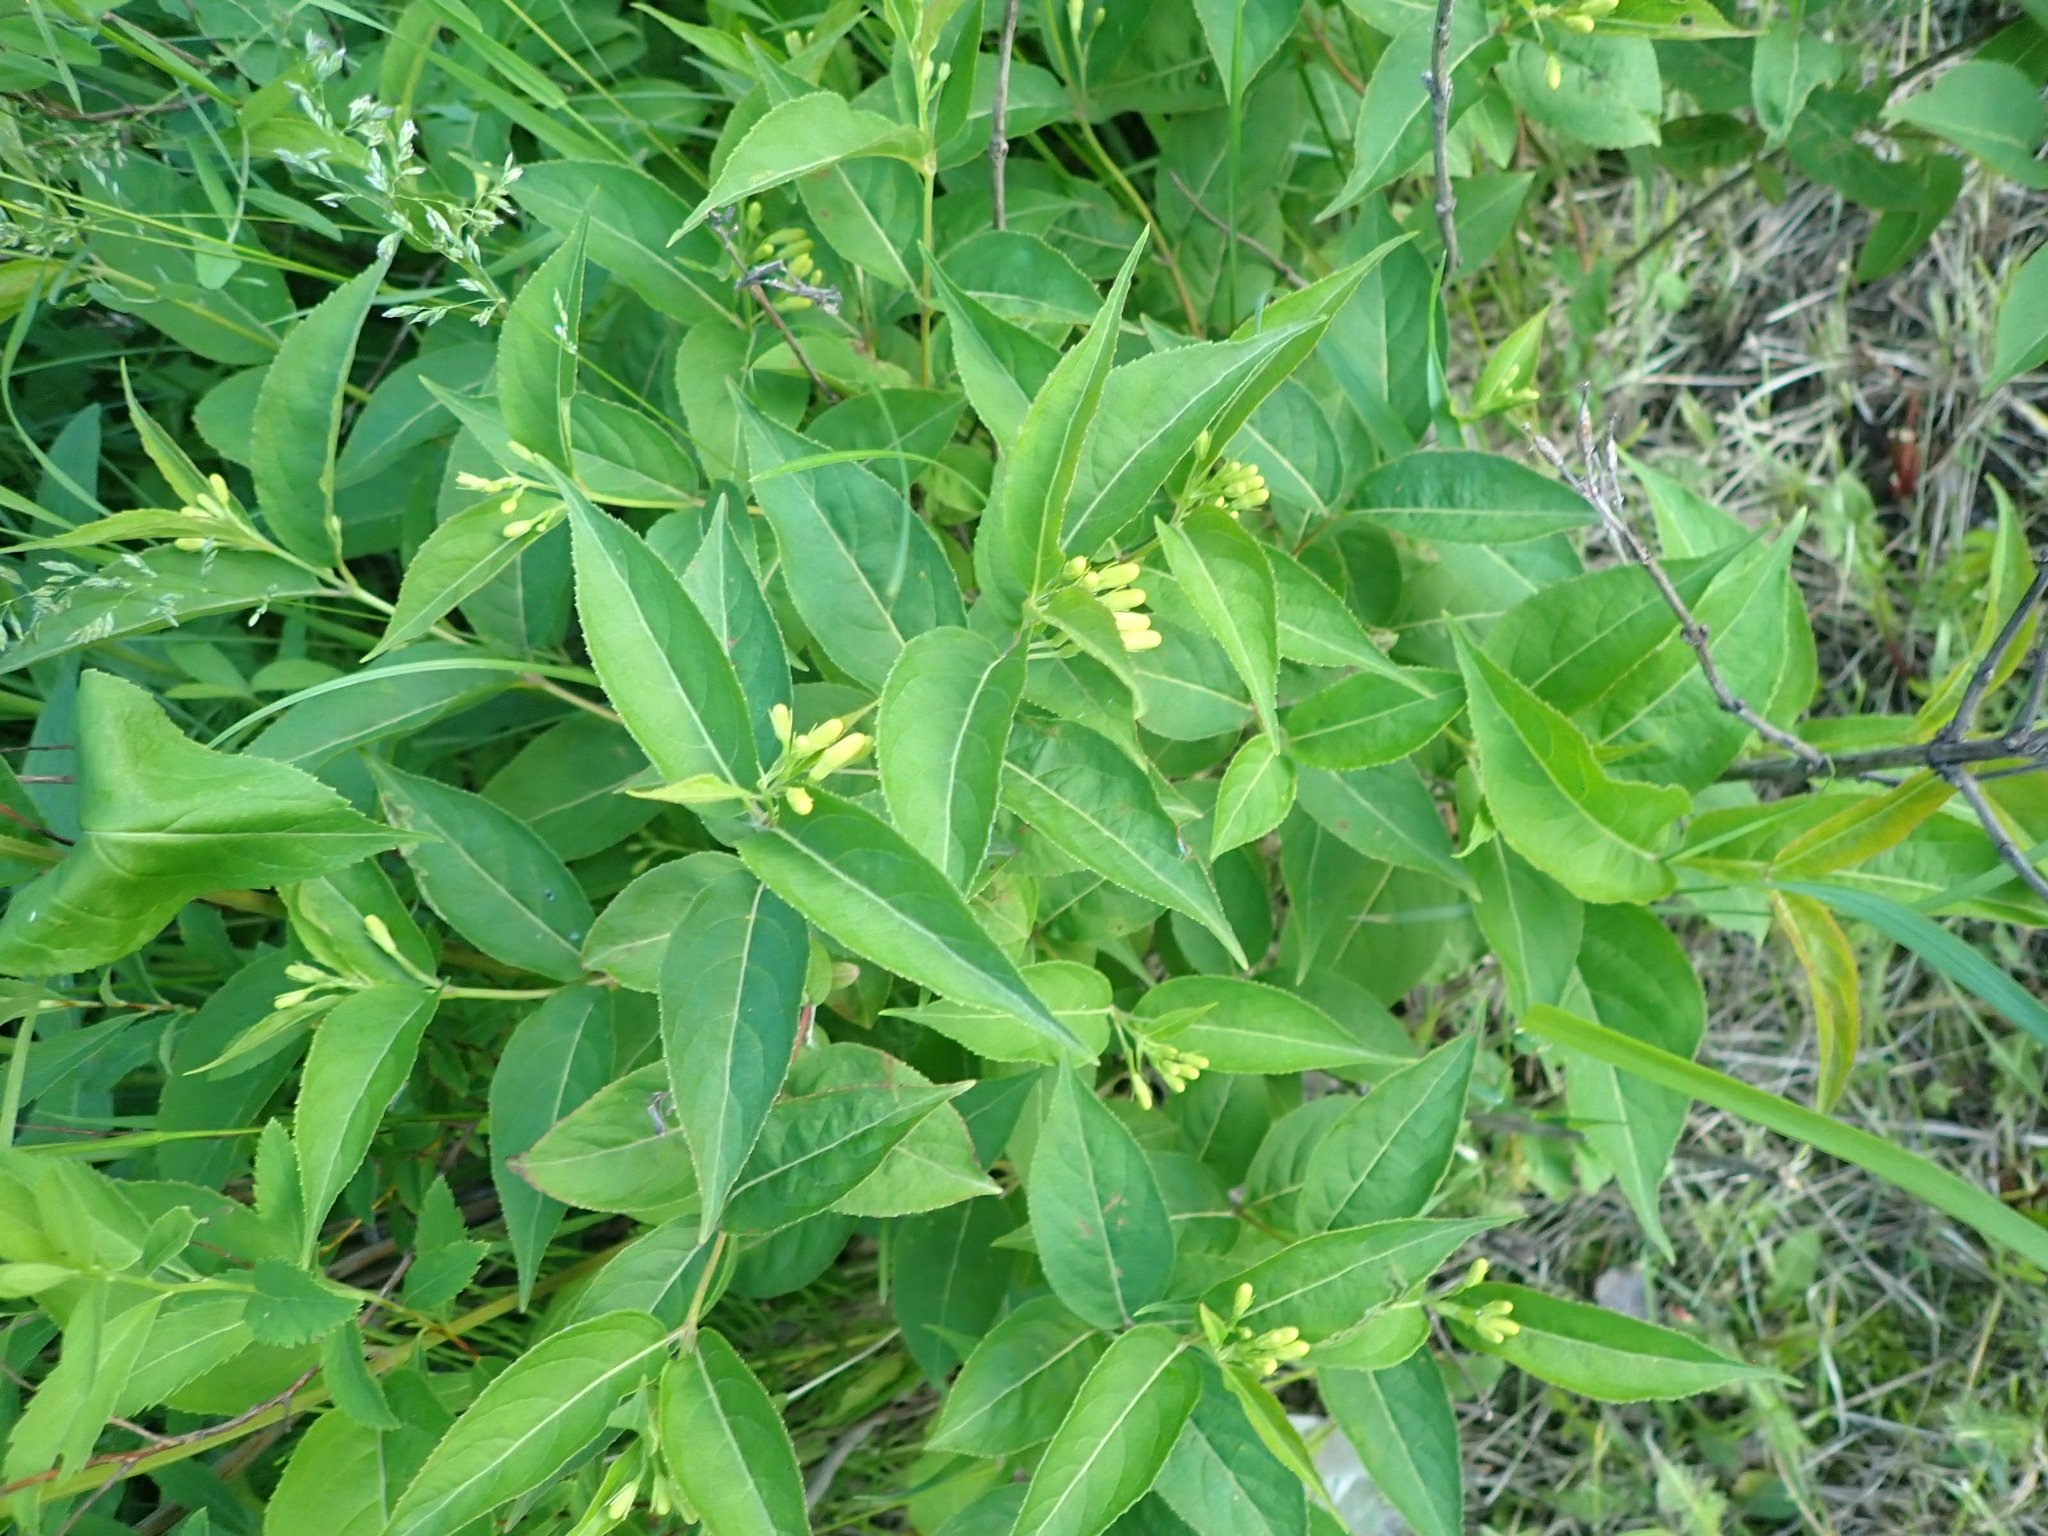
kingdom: Plantae
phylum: Tracheophyta
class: Magnoliopsida
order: Dipsacales
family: Caprifoliaceae
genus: Diervilla
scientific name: Diervilla lonicera
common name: Bush-honeysuckle
